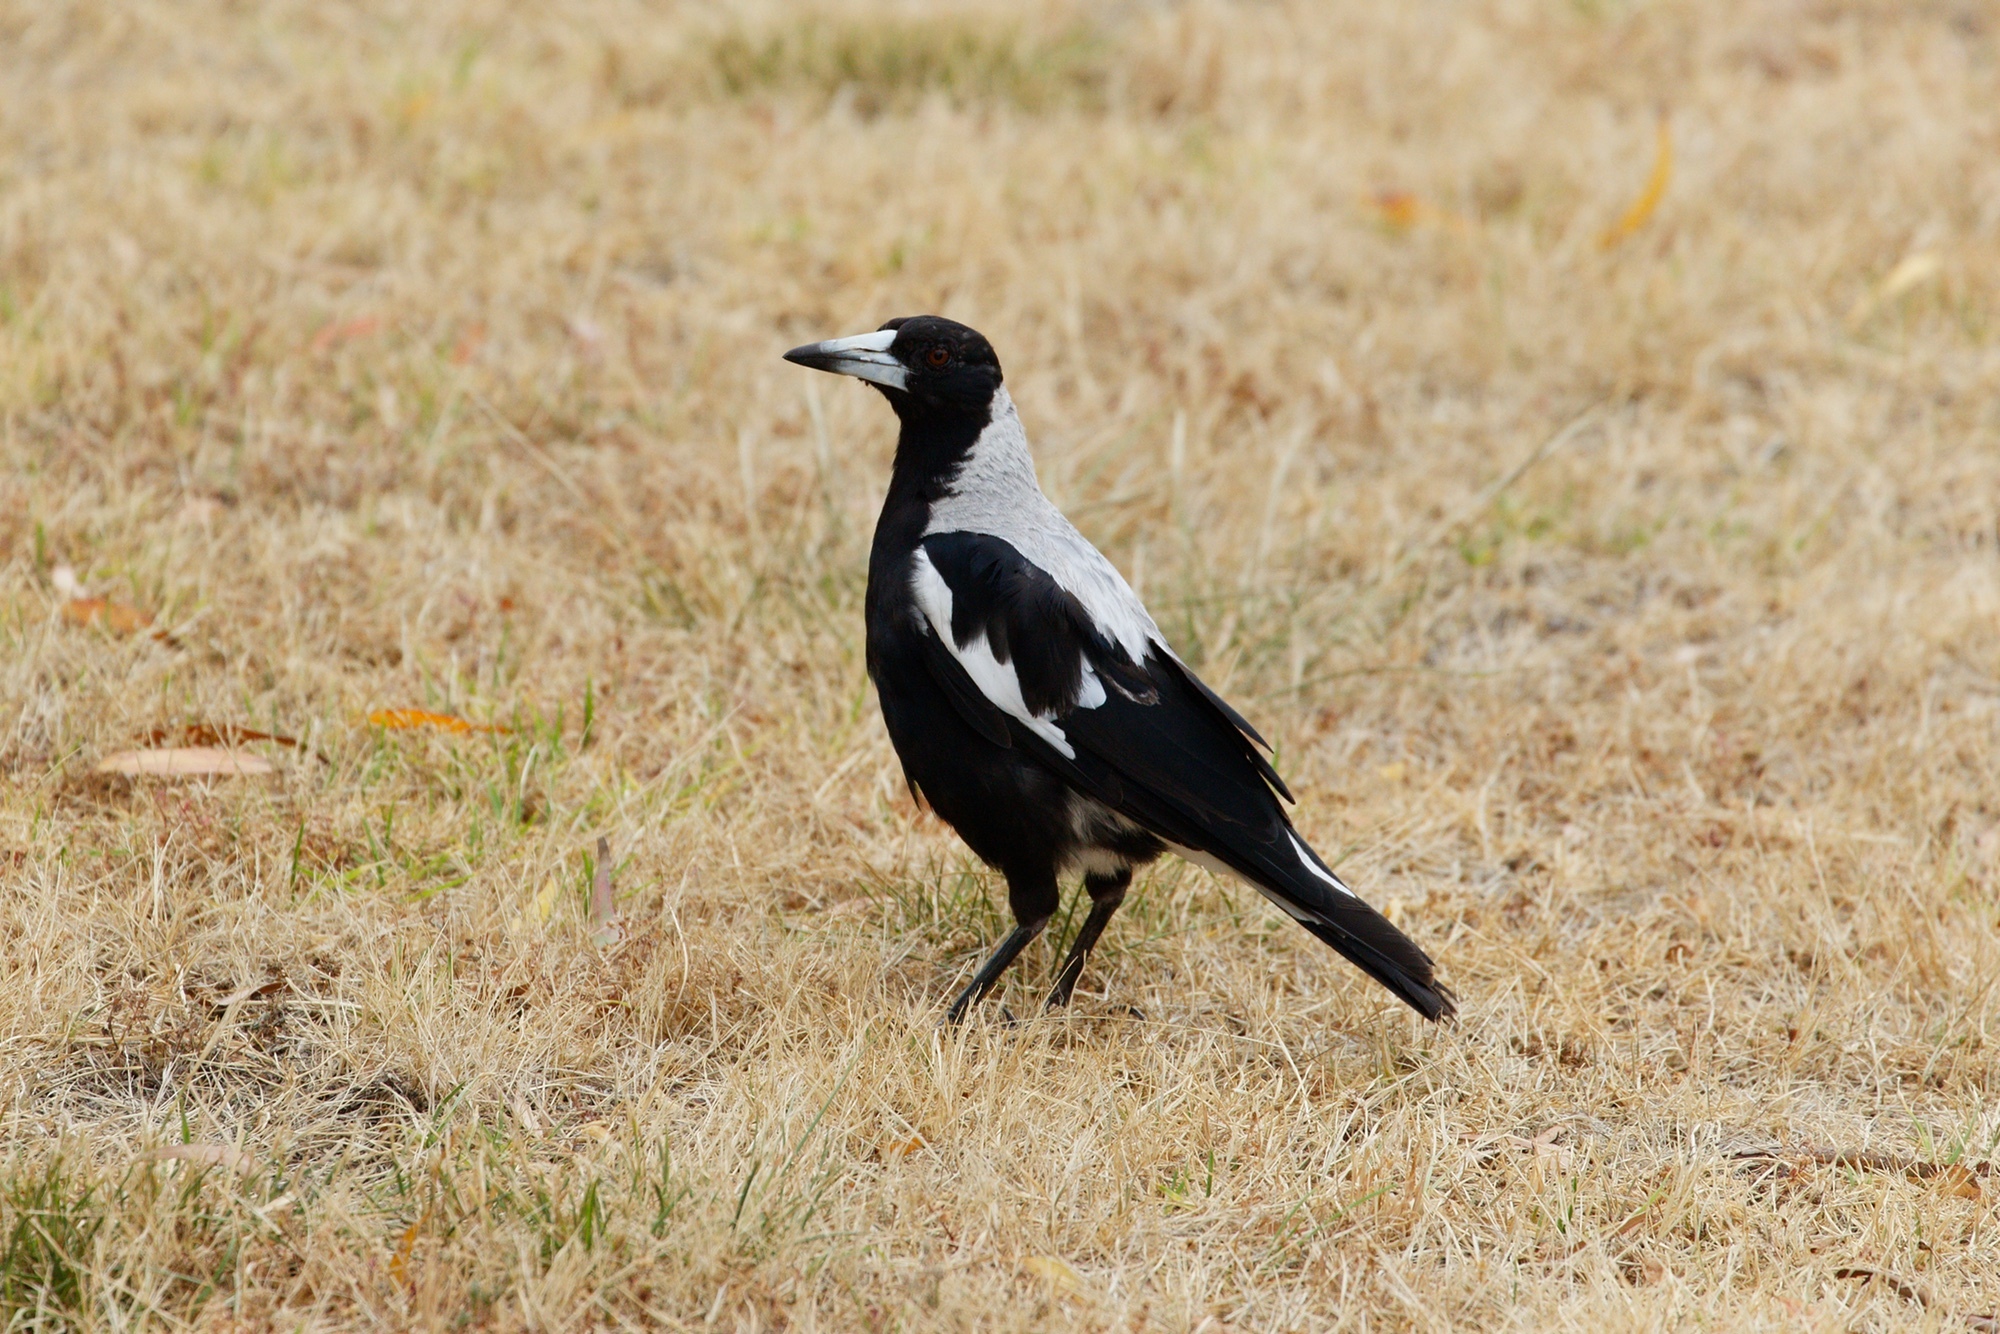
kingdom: Animalia
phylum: Chordata
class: Aves
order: Passeriformes
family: Cracticidae
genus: Gymnorhina
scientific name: Gymnorhina tibicen
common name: Australian magpie
